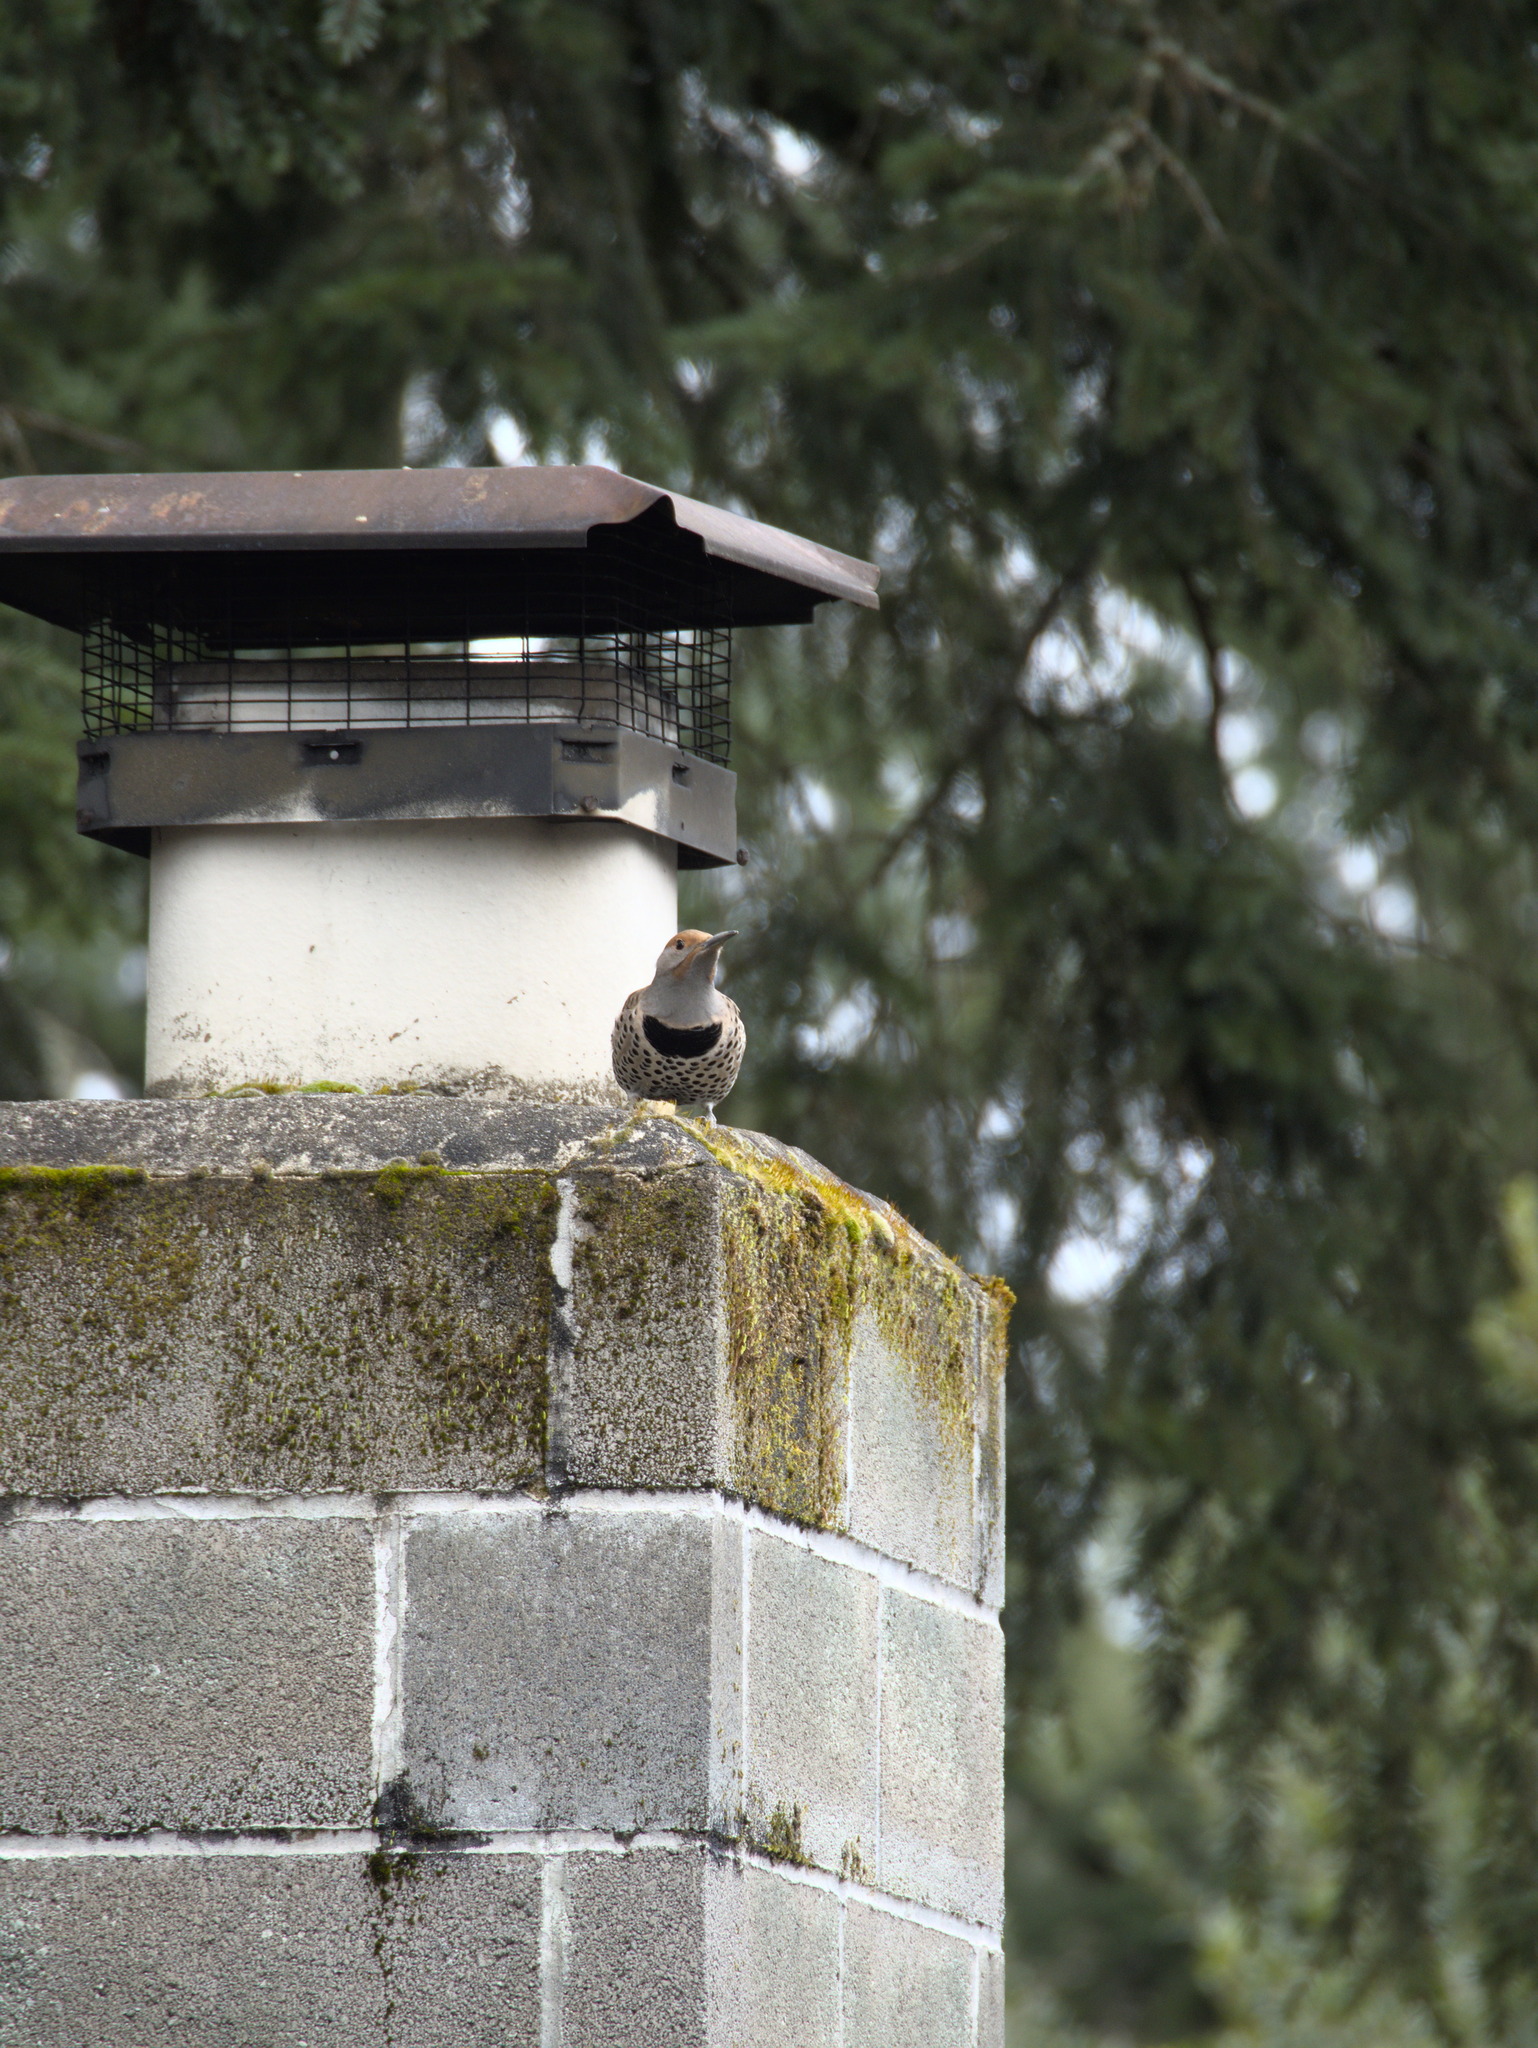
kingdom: Animalia
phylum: Chordata
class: Aves
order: Piciformes
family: Picidae
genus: Colaptes
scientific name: Colaptes auratus
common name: Northern flicker
